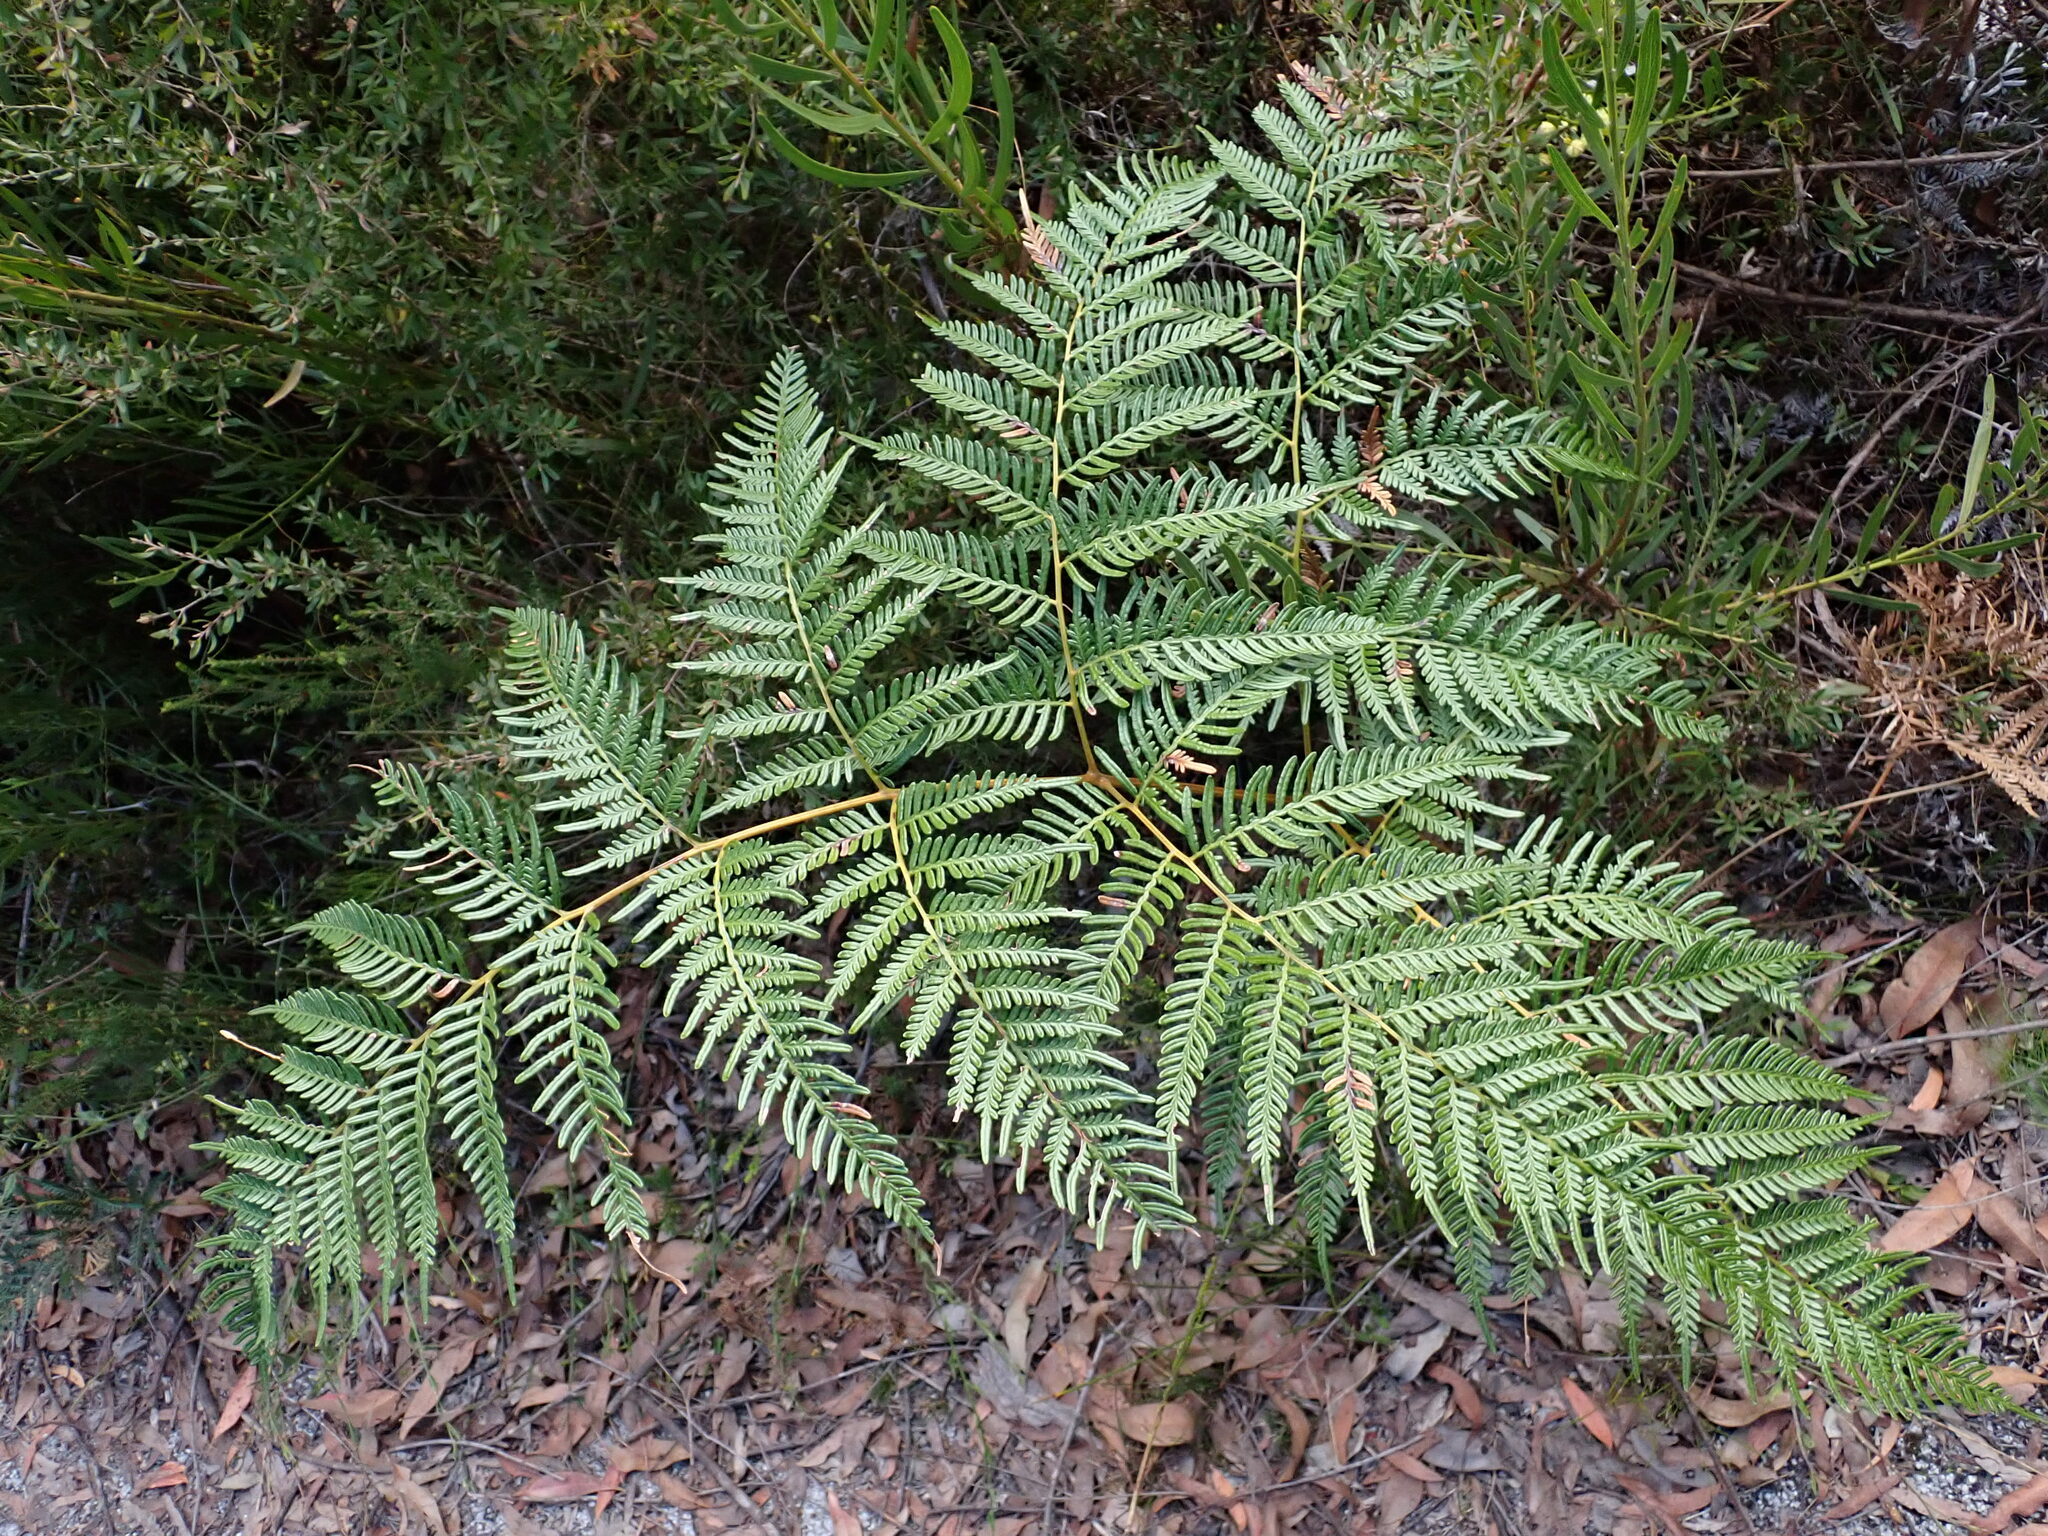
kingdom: Plantae
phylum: Tracheophyta
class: Polypodiopsida
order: Polypodiales
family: Dennstaedtiaceae
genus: Pteridium
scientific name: Pteridium esculentum
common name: Bracken fern
